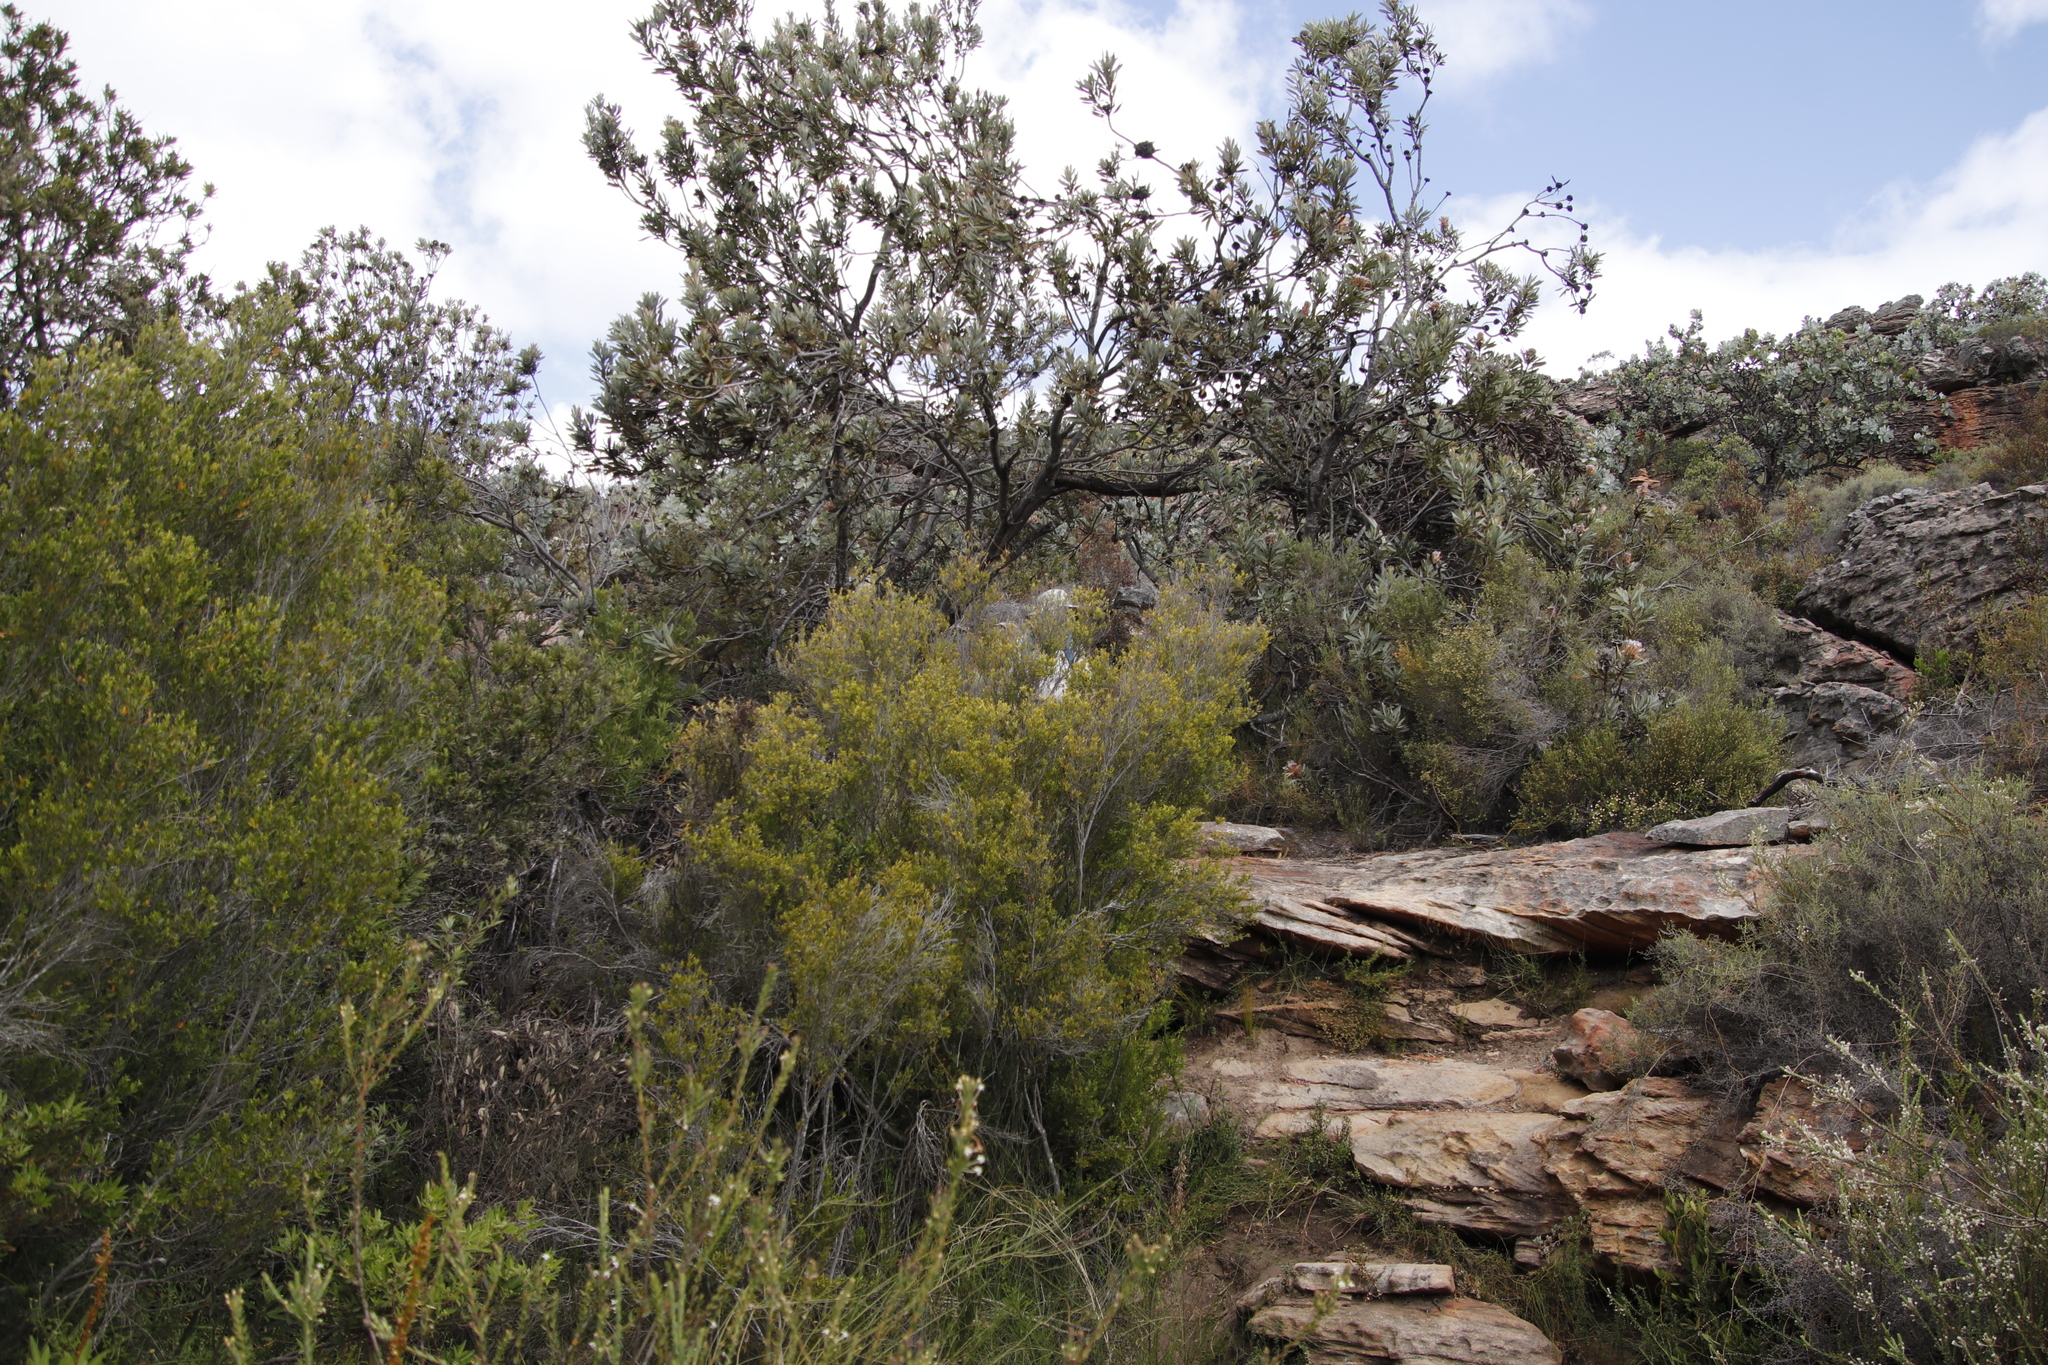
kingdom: Plantae
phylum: Tracheophyta
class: Magnoliopsida
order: Proteales
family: Proteaceae
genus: Protea
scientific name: Protea laurifolia
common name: Grey-leaf sugarbsh
